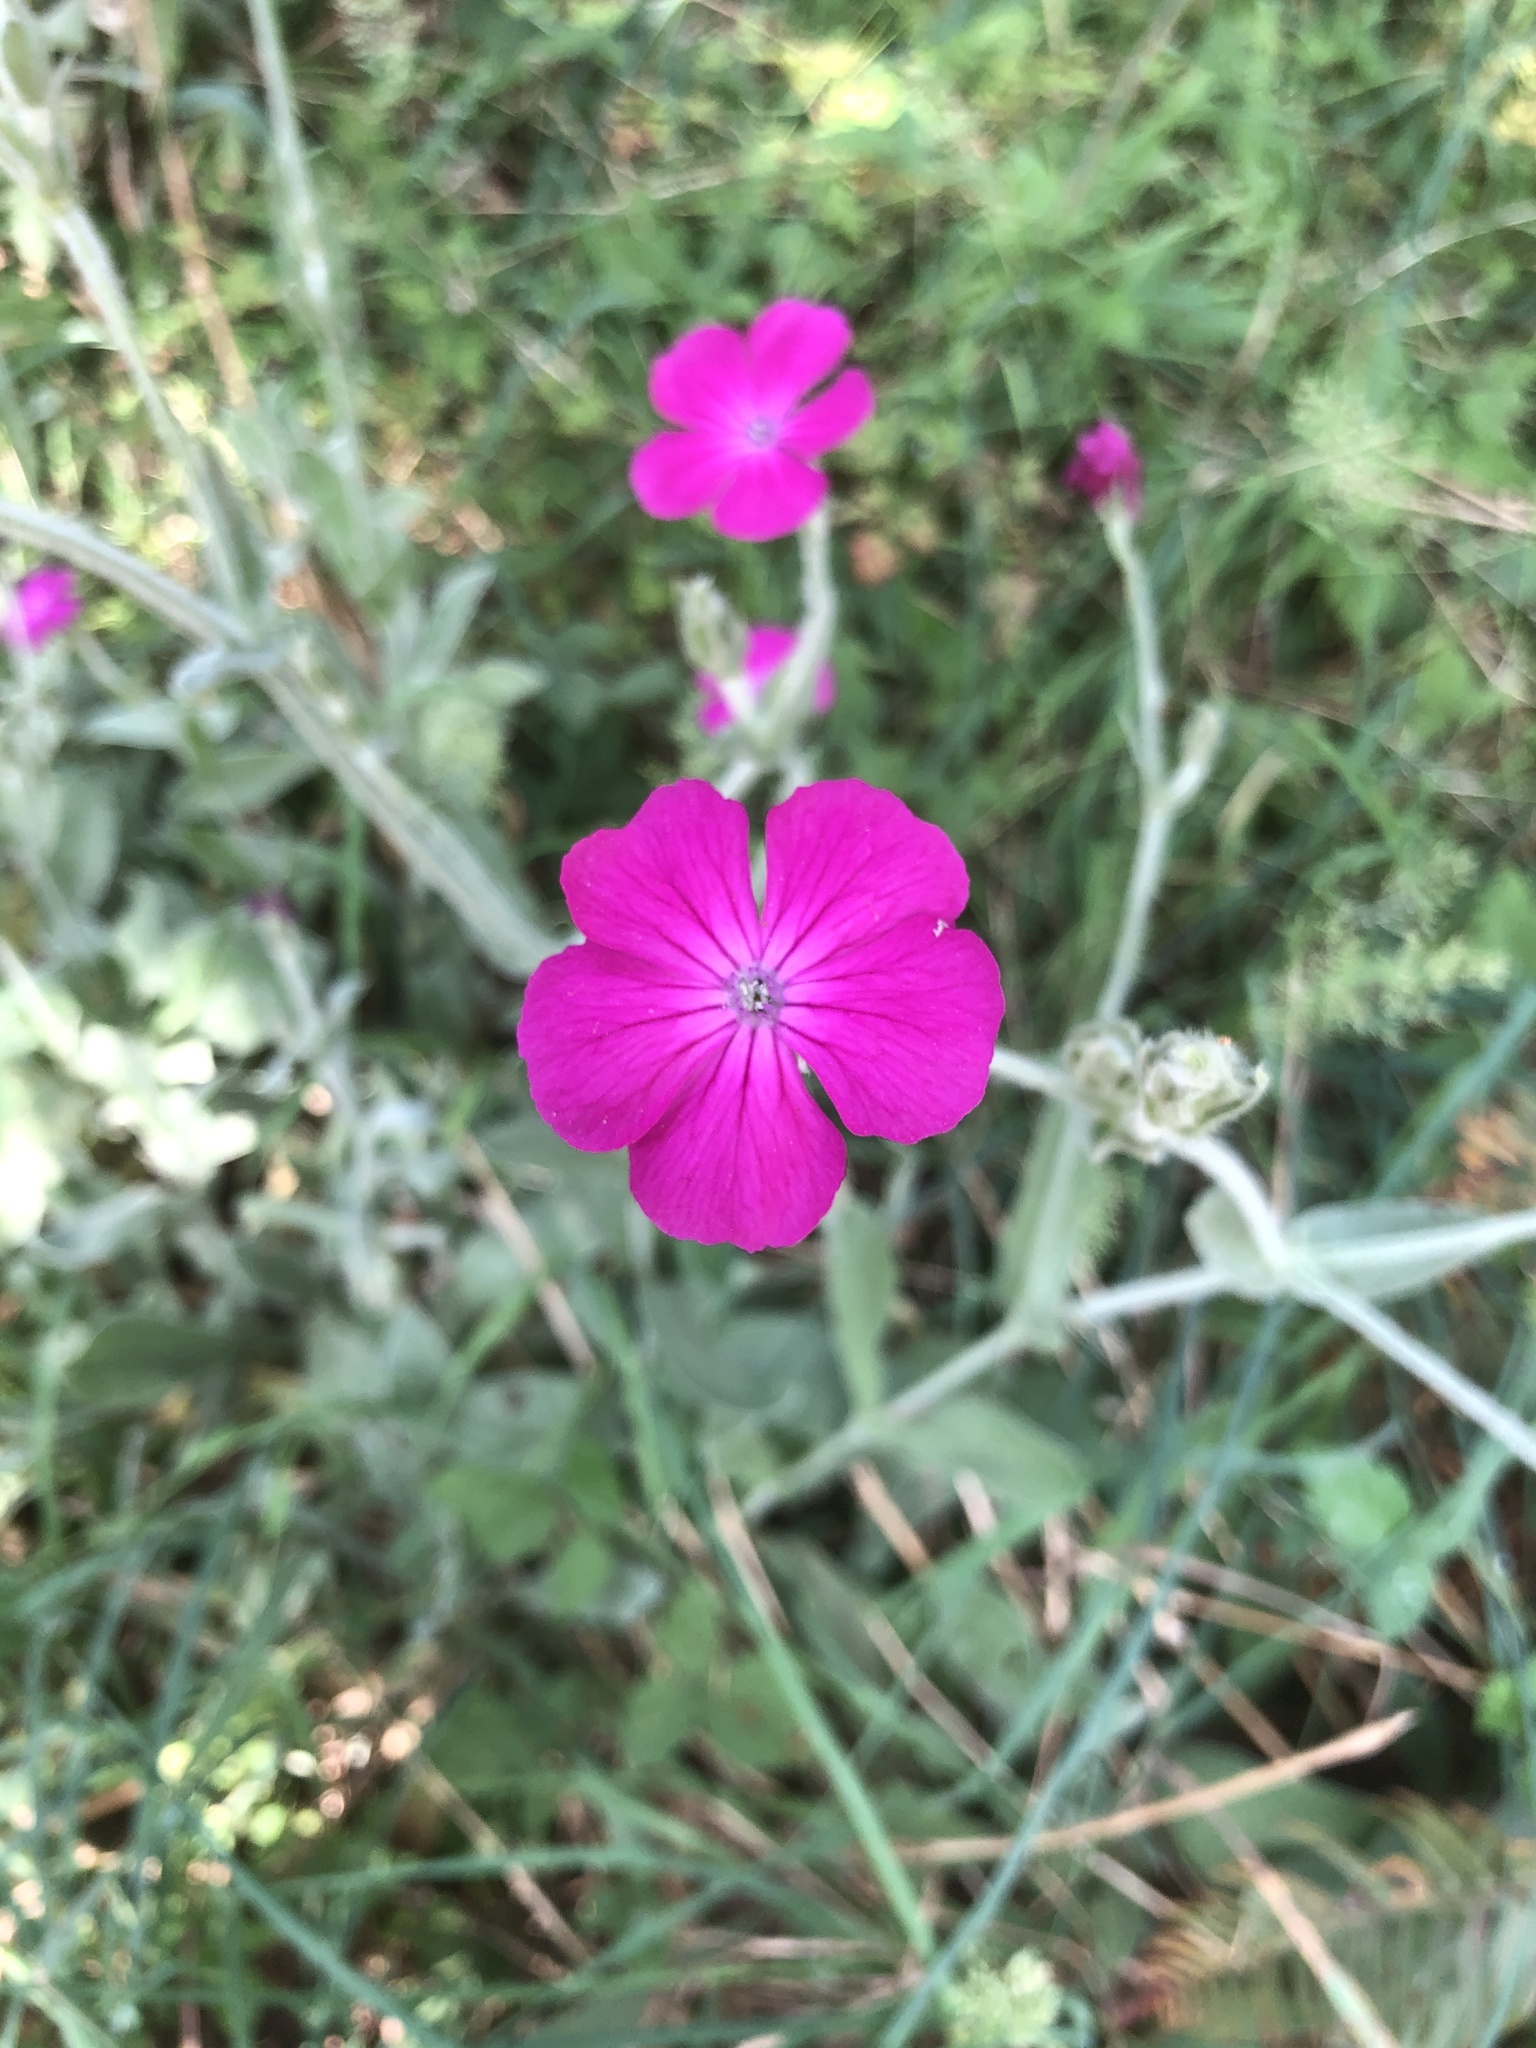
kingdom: Plantae
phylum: Tracheophyta
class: Magnoliopsida
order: Caryophyllales
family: Caryophyllaceae
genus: Silene
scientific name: Silene coronaria
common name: Rose campion
